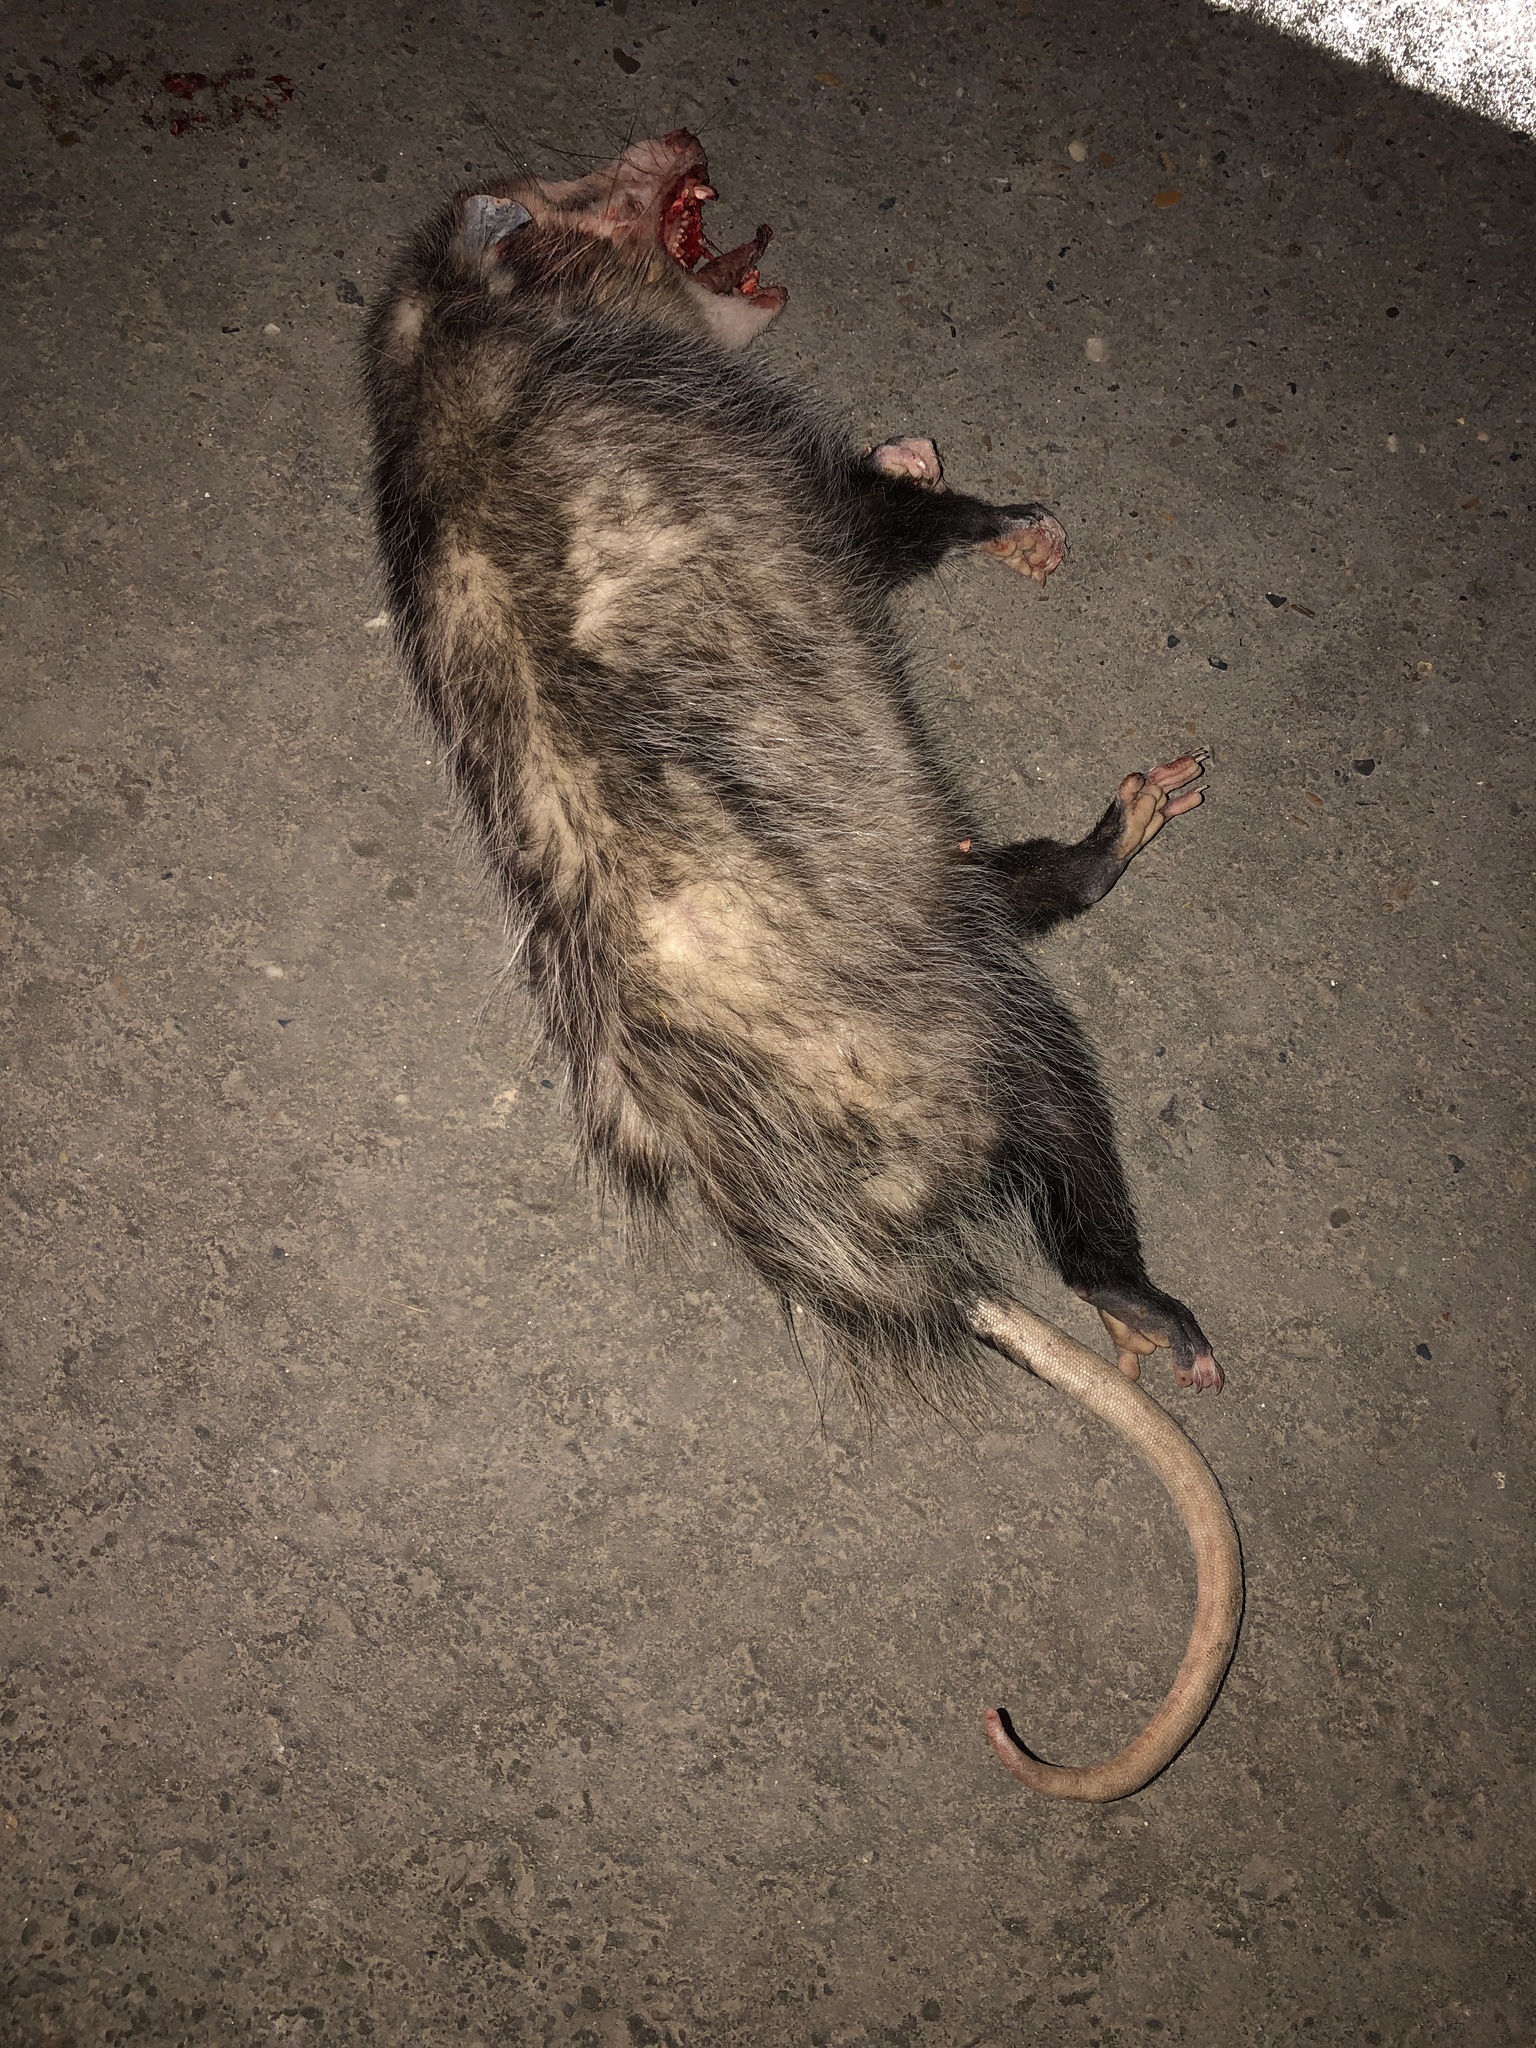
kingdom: Animalia
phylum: Chordata
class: Mammalia
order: Didelphimorphia
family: Didelphidae
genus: Didelphis
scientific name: Didelphis virginiana
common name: Virginia opossum
